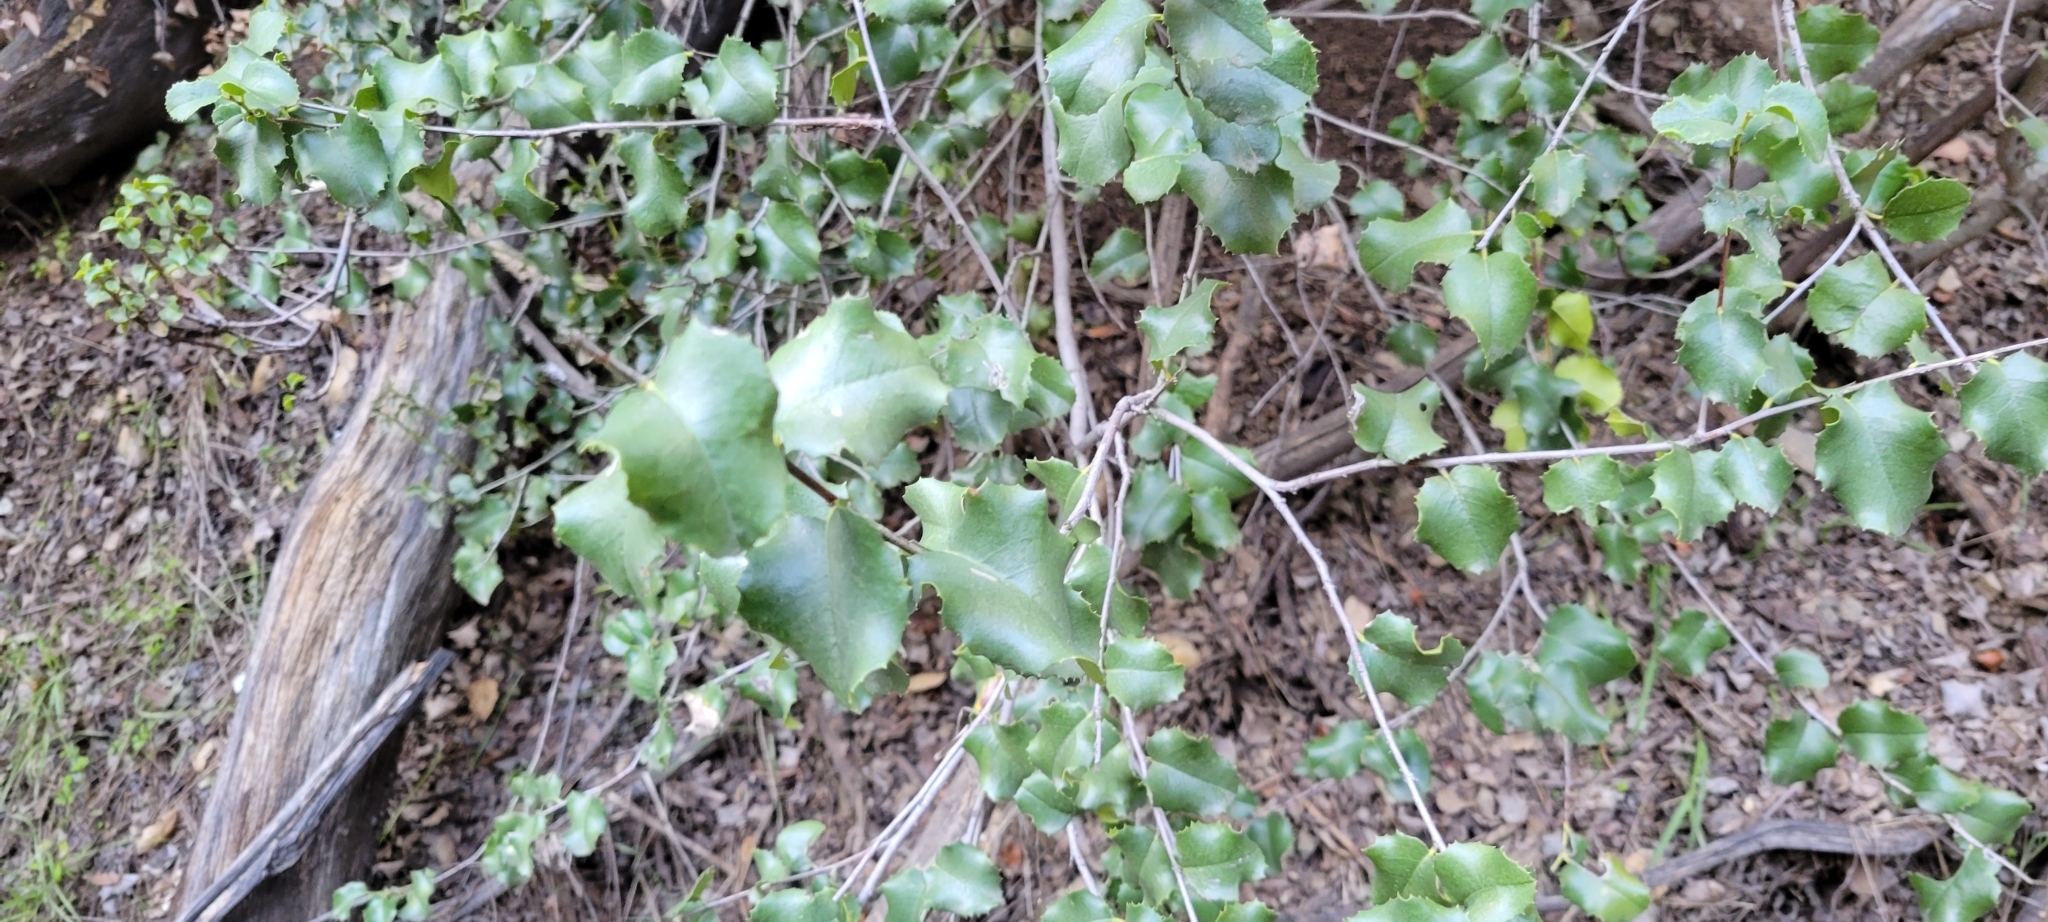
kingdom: Plantae
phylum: Tracheophyta
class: Magnoliopsida
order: Rosales
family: Rosaceae
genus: Prunus
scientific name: Prunus ilicifolia
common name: Hollyleaf cherry
